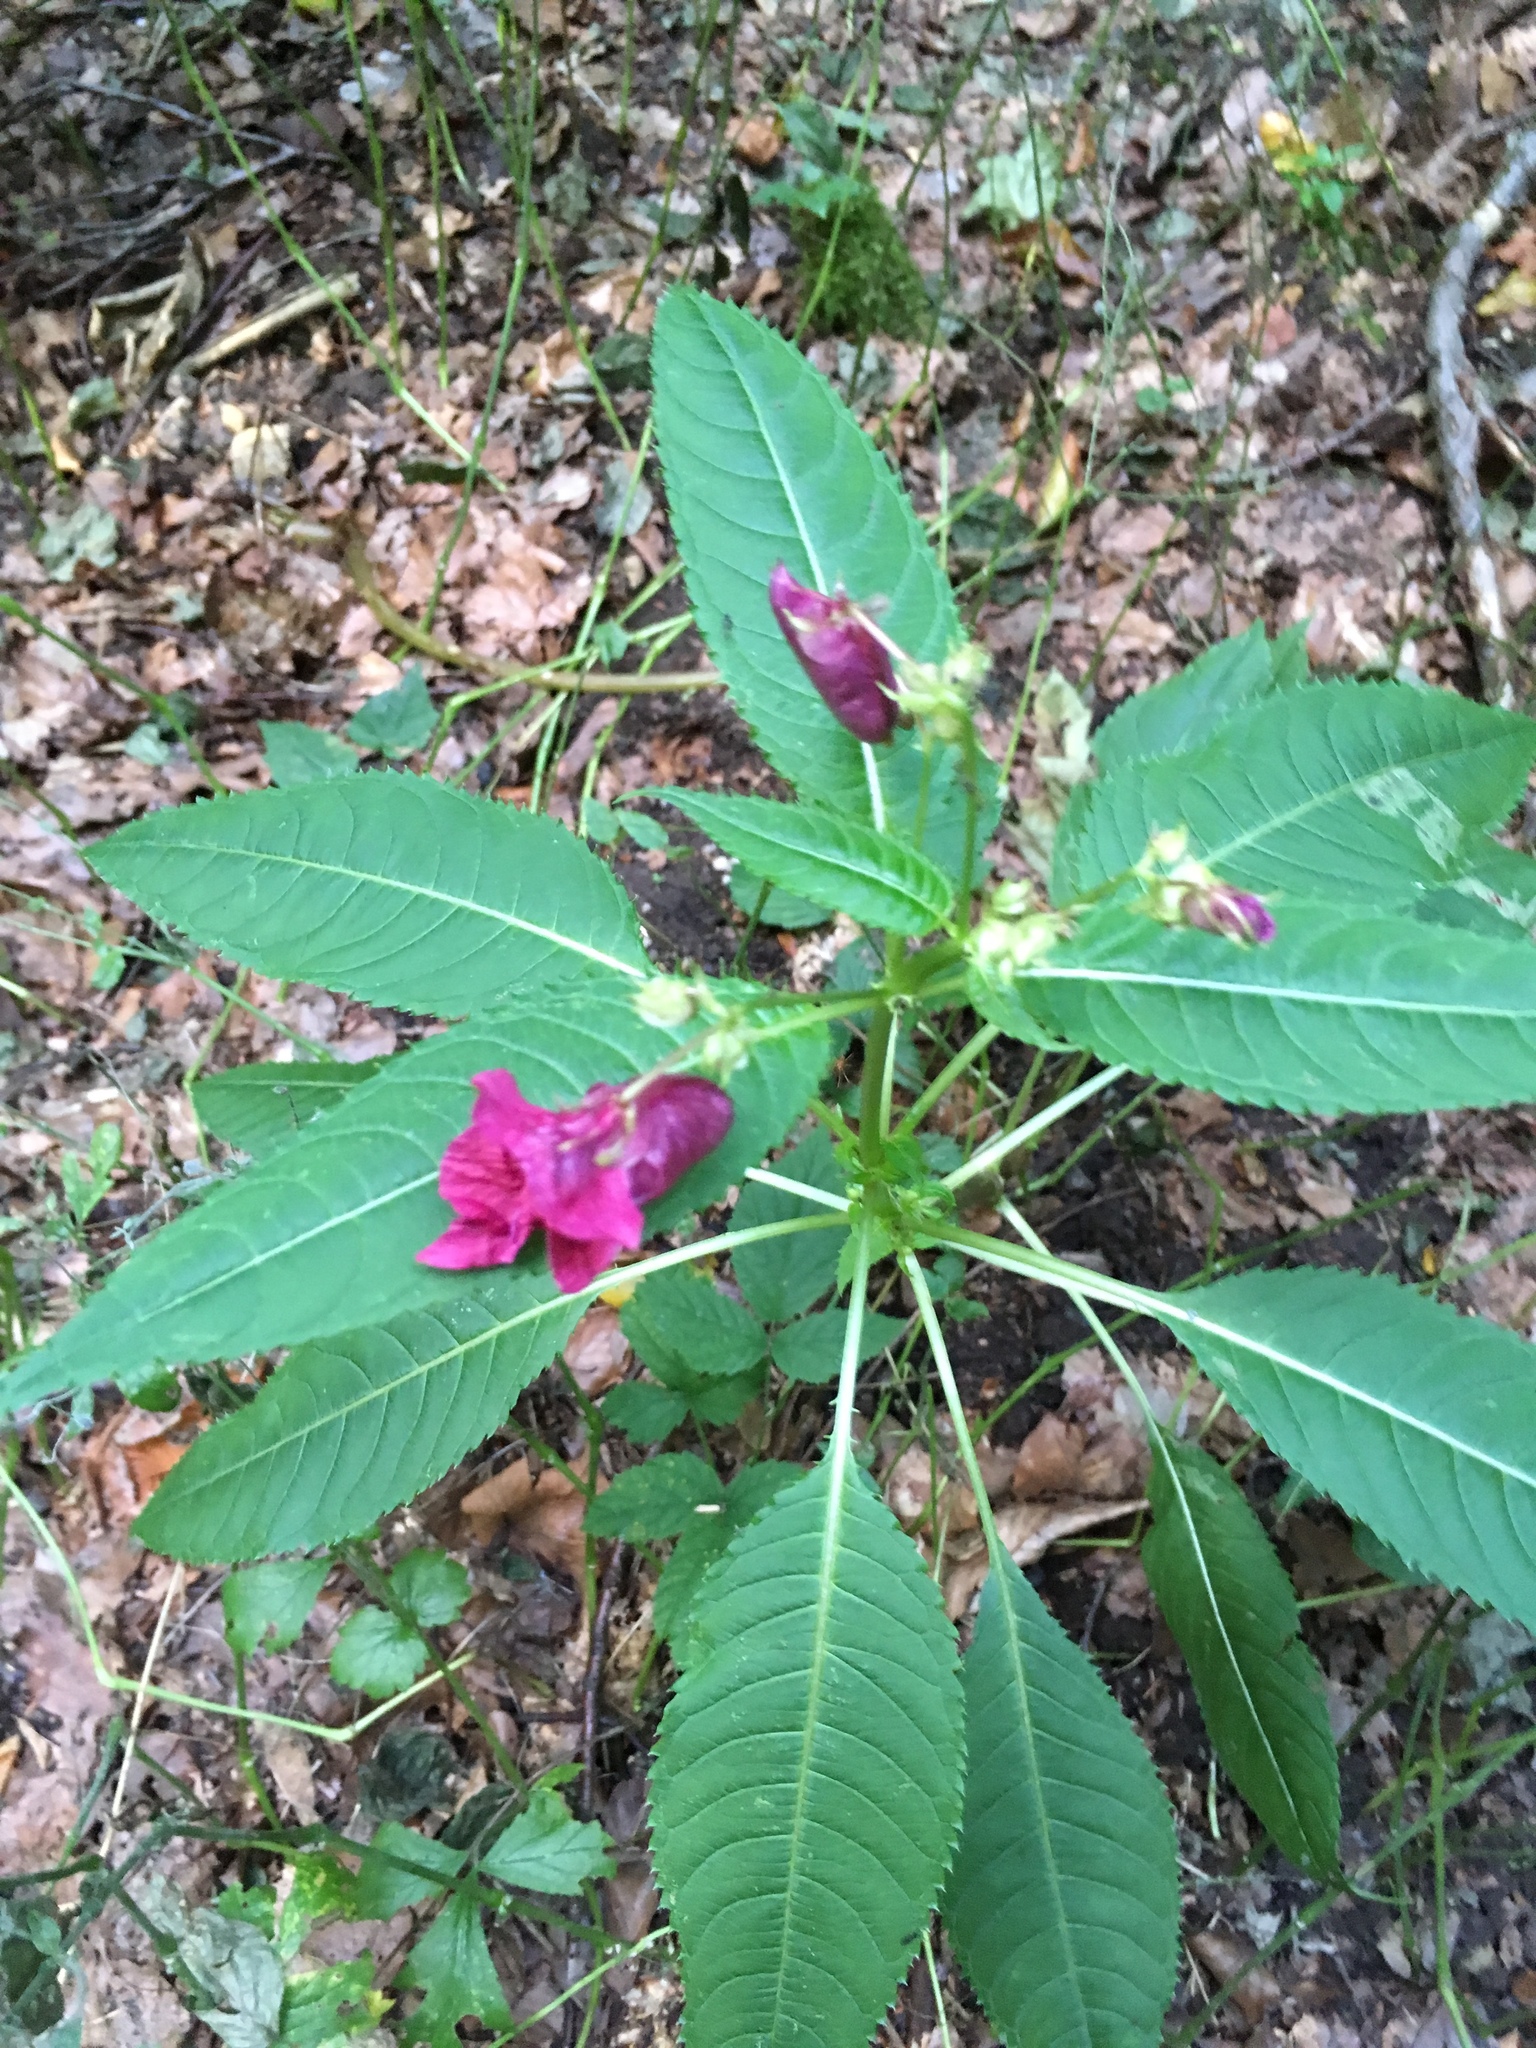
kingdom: Plantae
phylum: Tracheophyta
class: Magnoliopsida
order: Ericales
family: Balsaminaceae
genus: Impatiens
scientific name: Impatiens glandulifera
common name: Himalayan balsam
